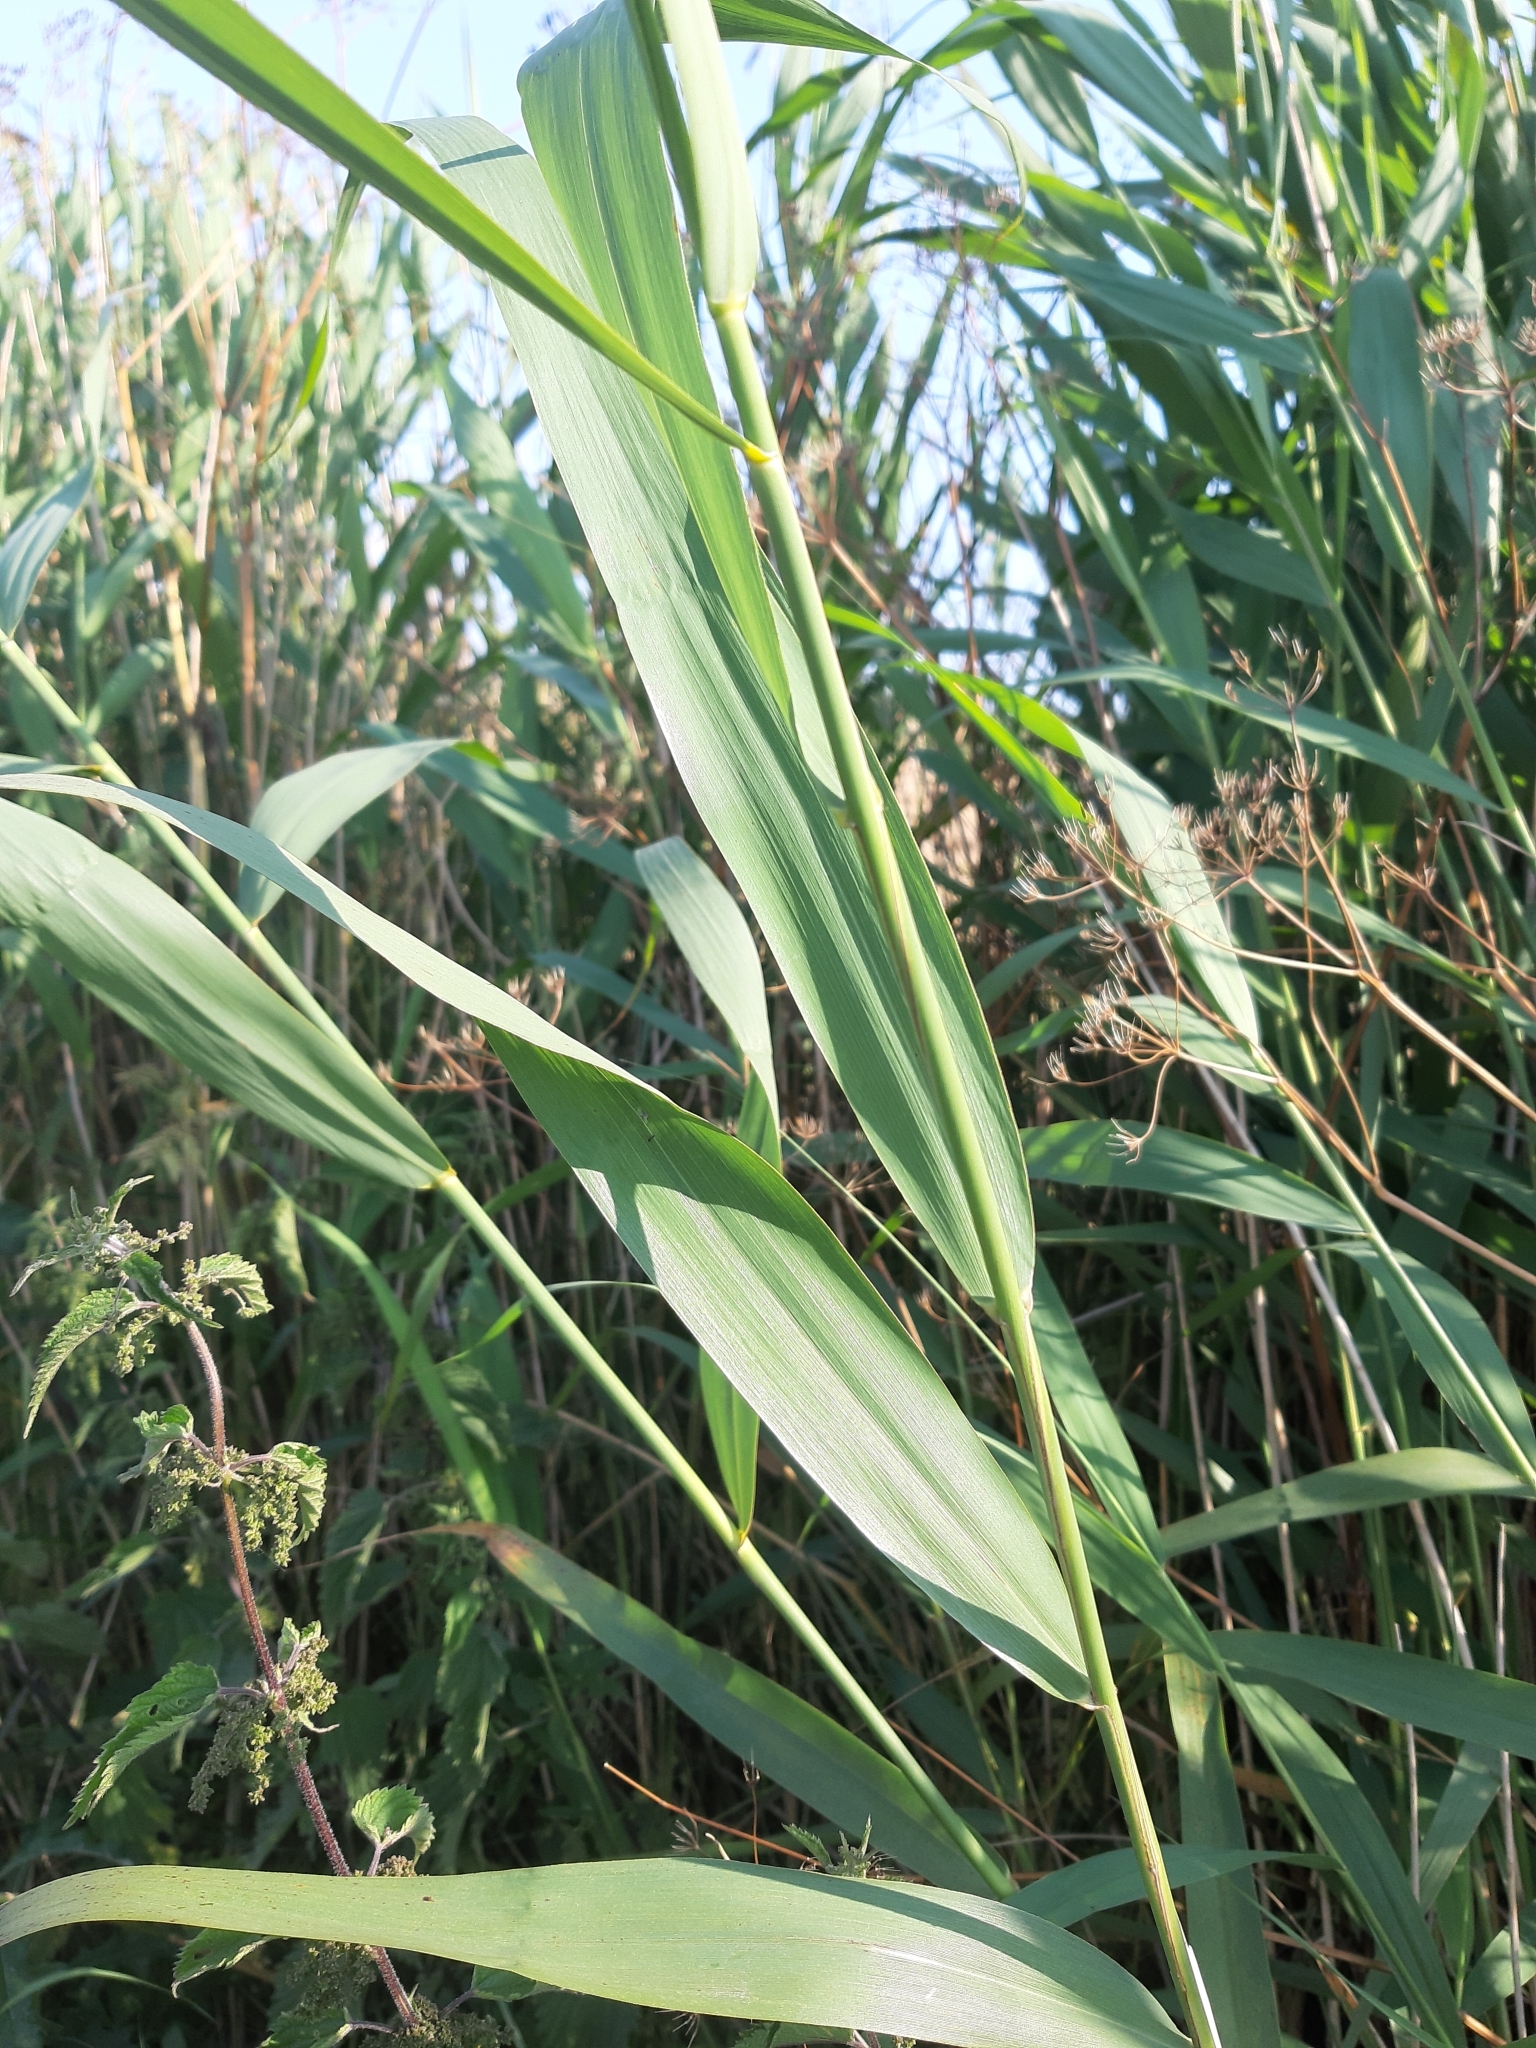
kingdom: Plantae
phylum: Tracheophyta
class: Liliopsida
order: Poales
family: Poaceae
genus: Phragmites
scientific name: Phragmites australis
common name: Common reed
